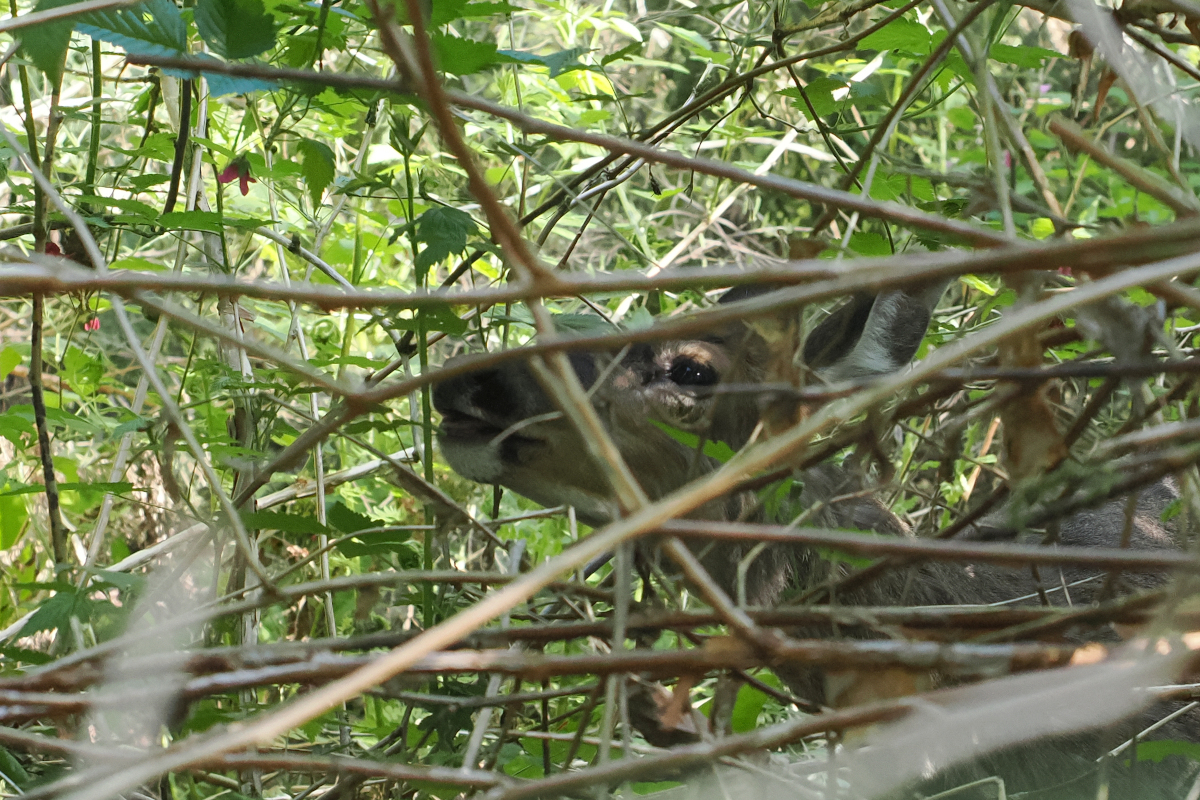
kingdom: Animalia
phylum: Chordata
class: Mammalia
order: Artiodactyla
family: Cervidae
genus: Odocoileus
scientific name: Odocoileus hemionus
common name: Mule deer
